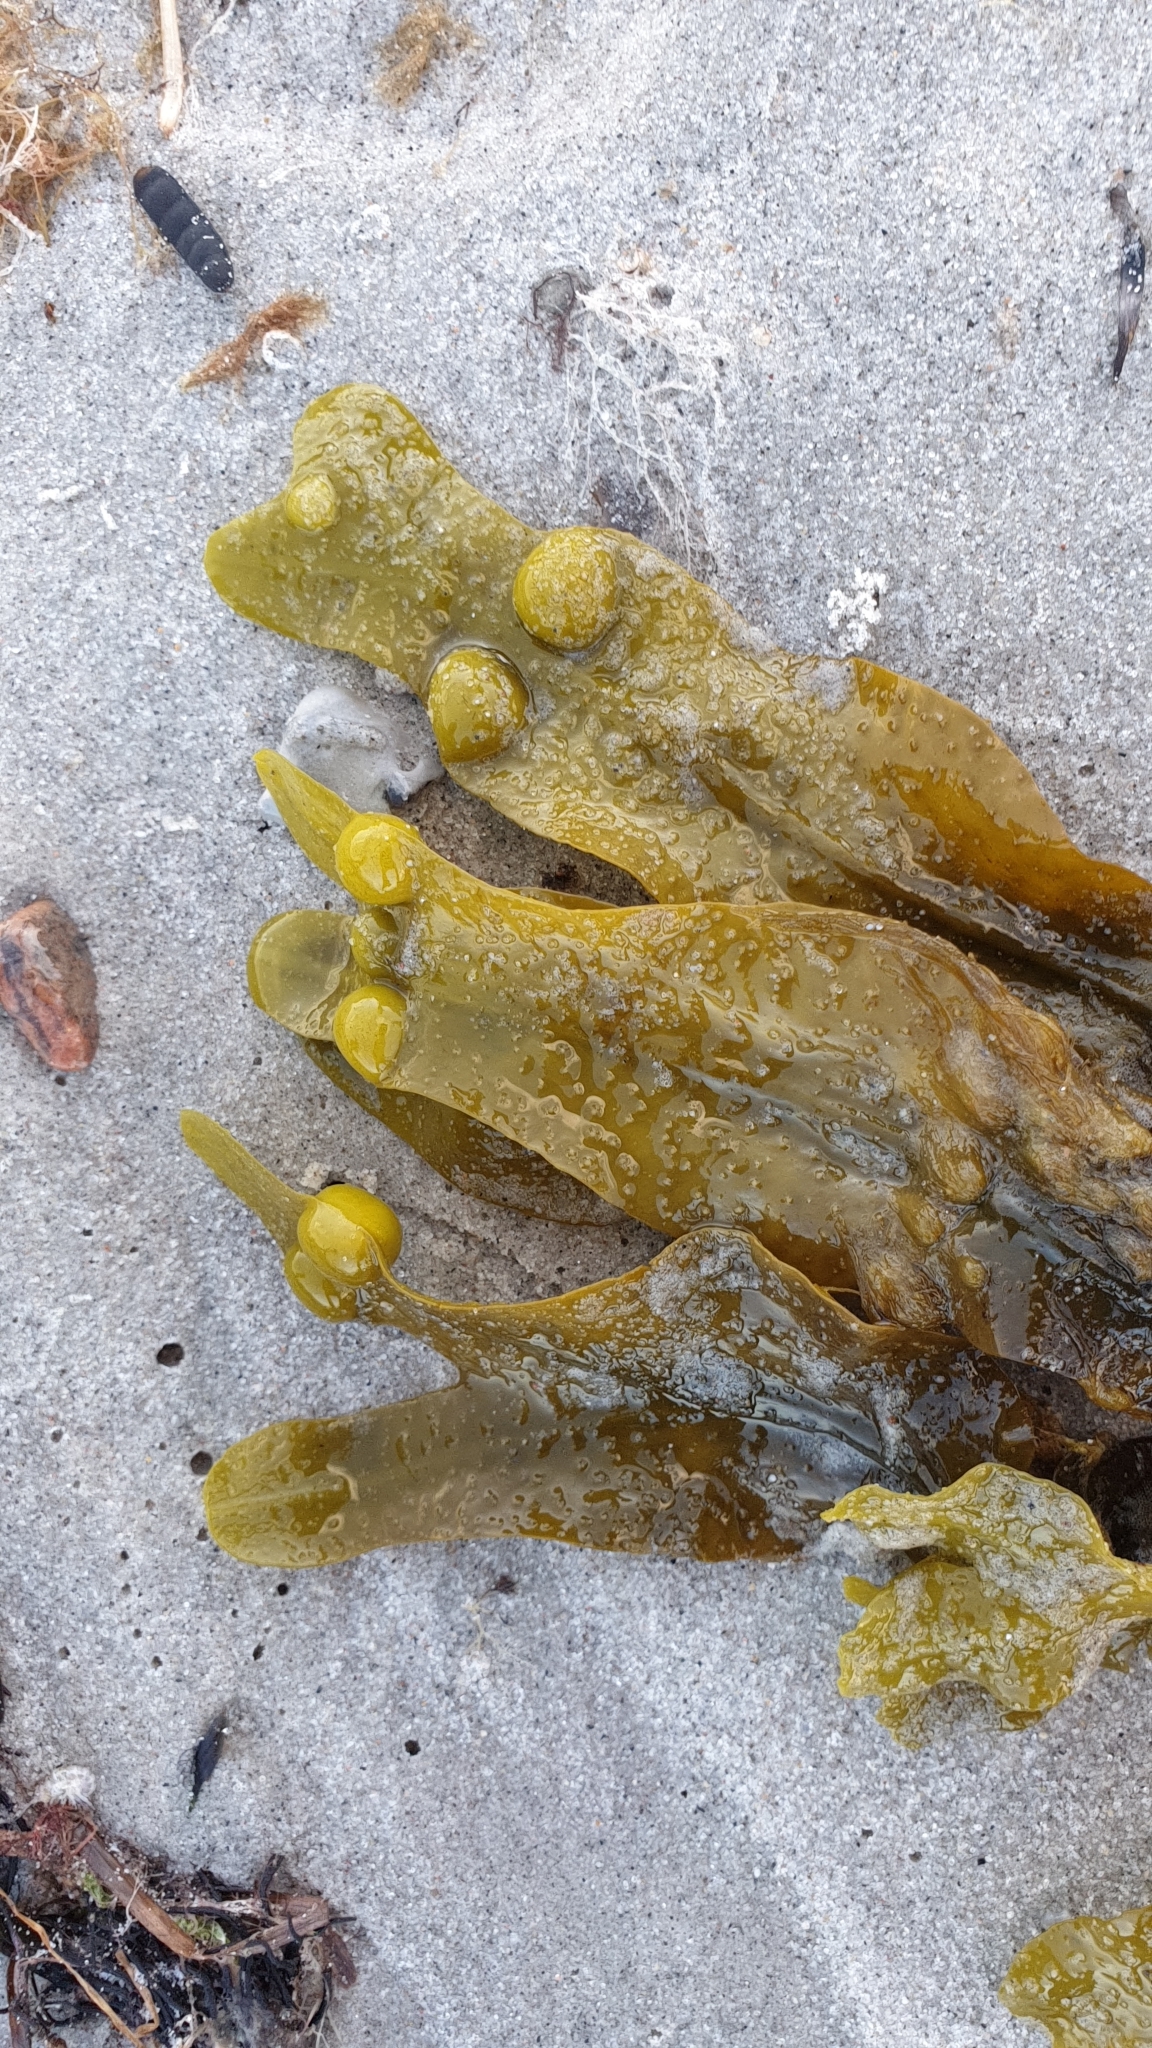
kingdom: Chromista
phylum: Ochrophyta
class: Phaeophyceae
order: Fucales
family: Fucaceae
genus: Fucus
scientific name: Fucus vesiculosus
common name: Bladder wrack
